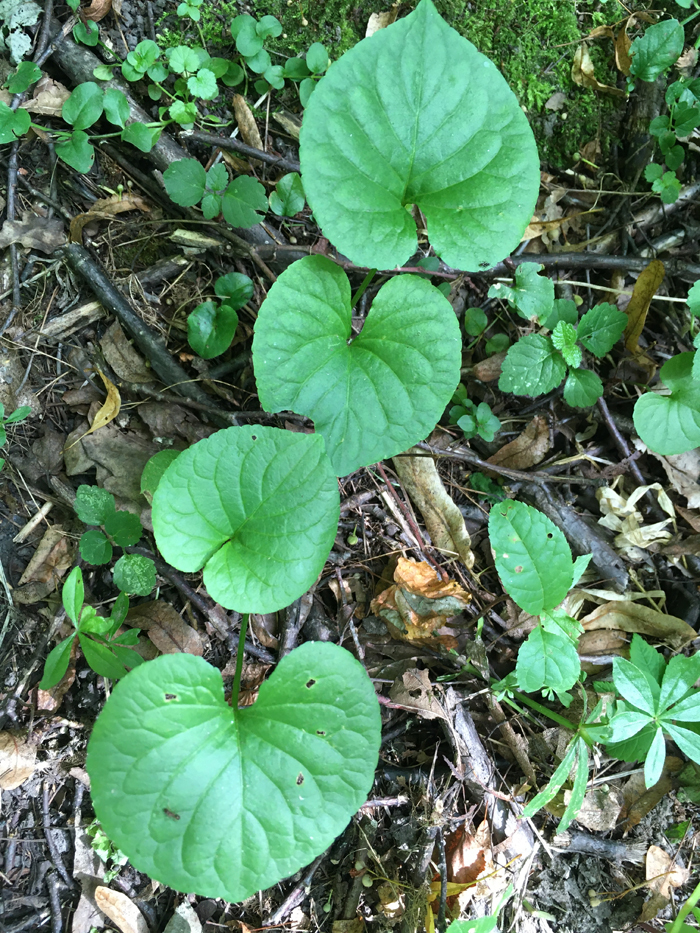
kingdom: Plantae
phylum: Tracheophyta
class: Magnoliopsida
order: Malpighiales
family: Violaceae
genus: Viola
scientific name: Viola epipsila
